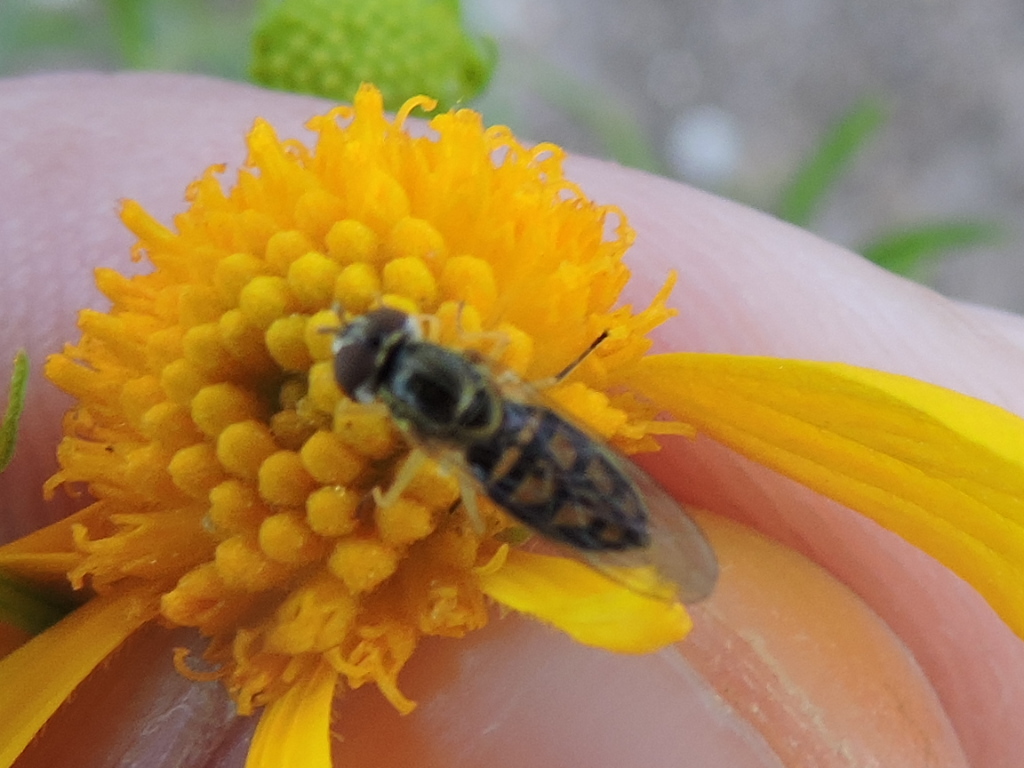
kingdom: Animalia
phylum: Arthropoda
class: Insecta
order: Diptera
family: Syrphidae
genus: Toxomerus
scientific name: Toxomerus marginatus
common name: Syrphid fly
